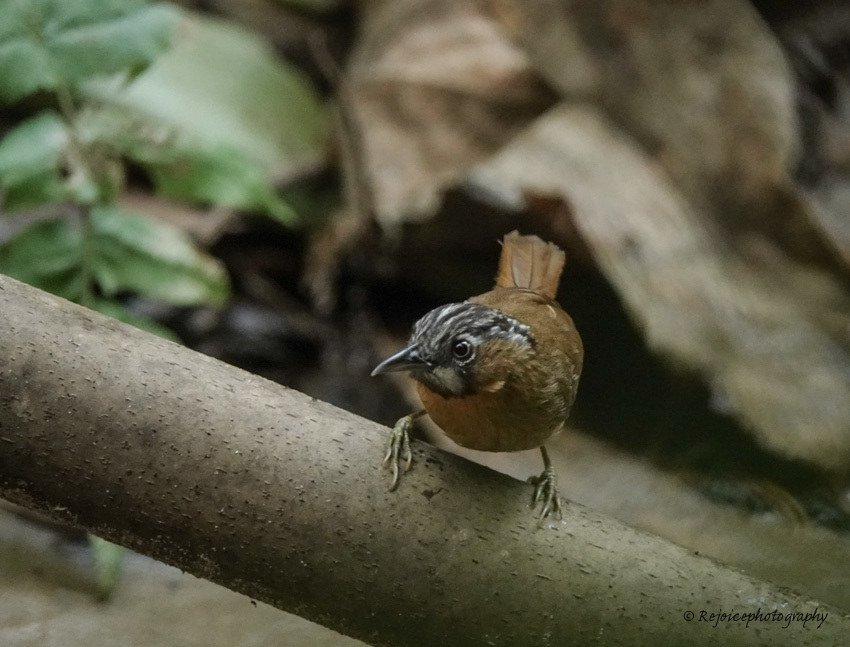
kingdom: Animalia
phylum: Chordata
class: Aves
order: Passeriformes
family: Timaliidae
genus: Stachyris
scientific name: Stachyris nigriceps
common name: Grey-throated babbler
